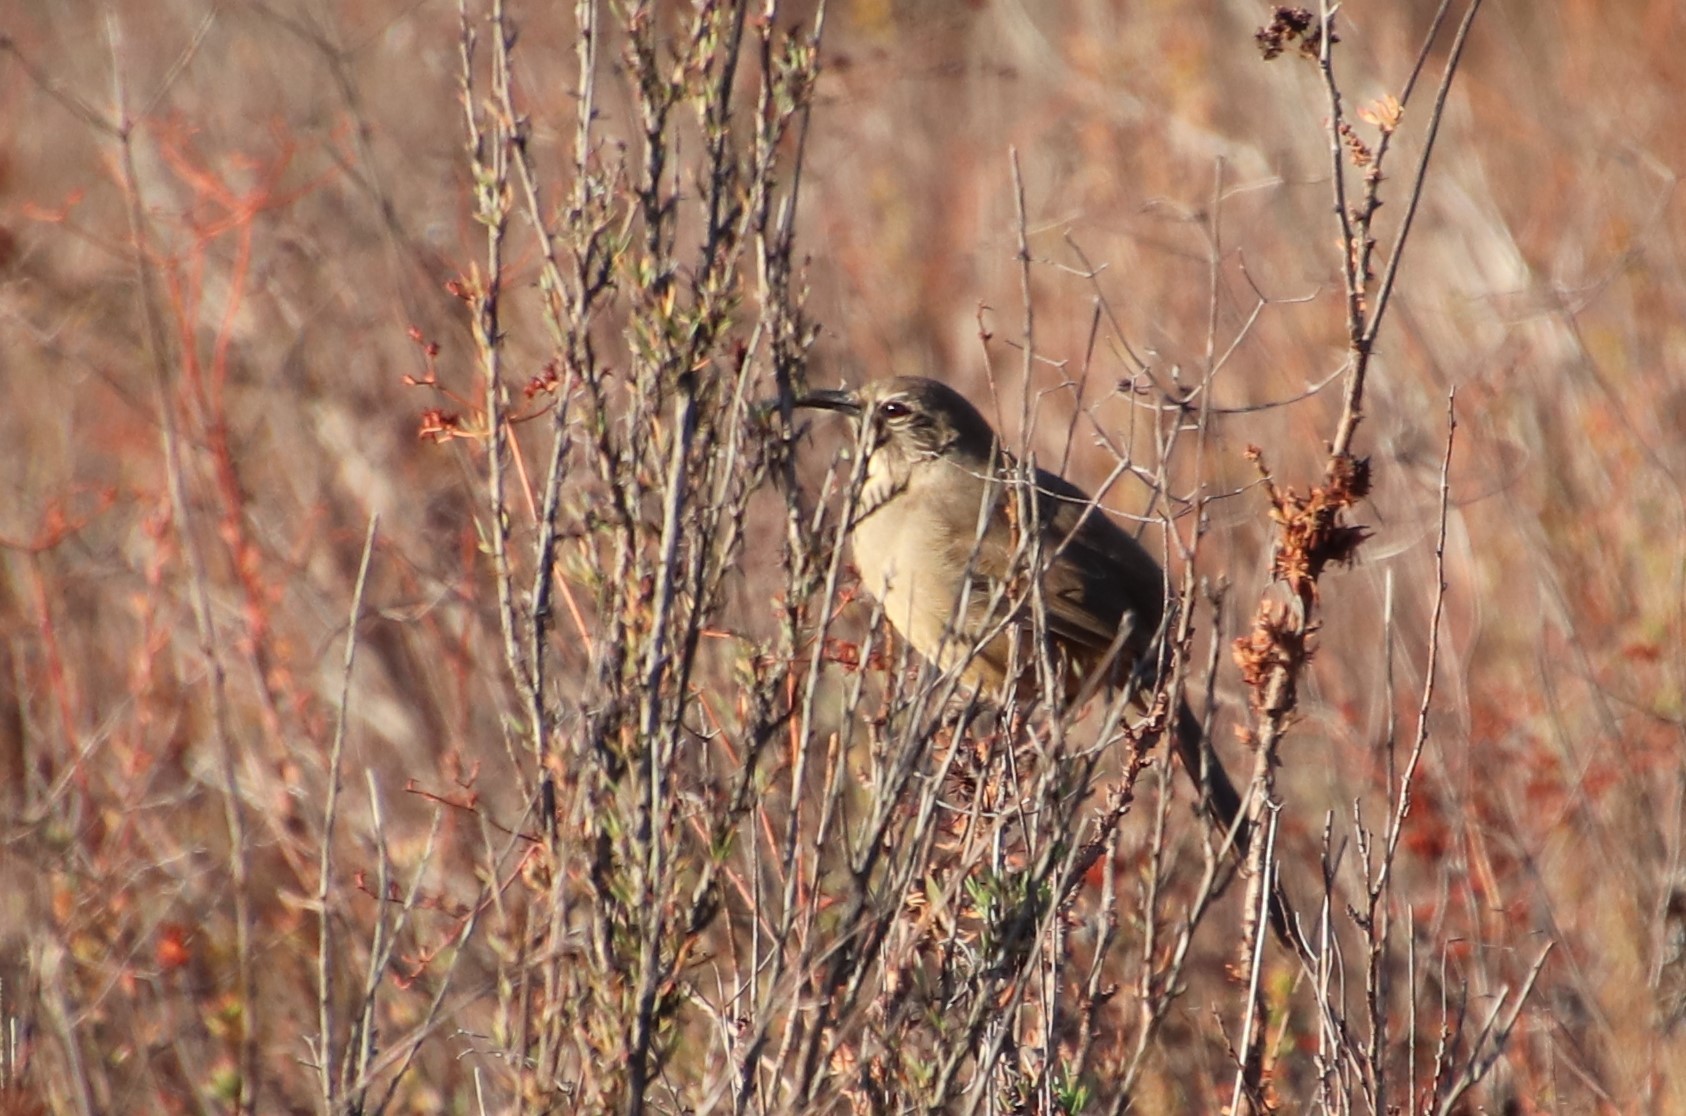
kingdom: Animalia
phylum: Chordata
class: Aves
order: Passeriformes
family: Mimidae
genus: Toxostoma
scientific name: Toxostoma redivivum
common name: California thrasher
